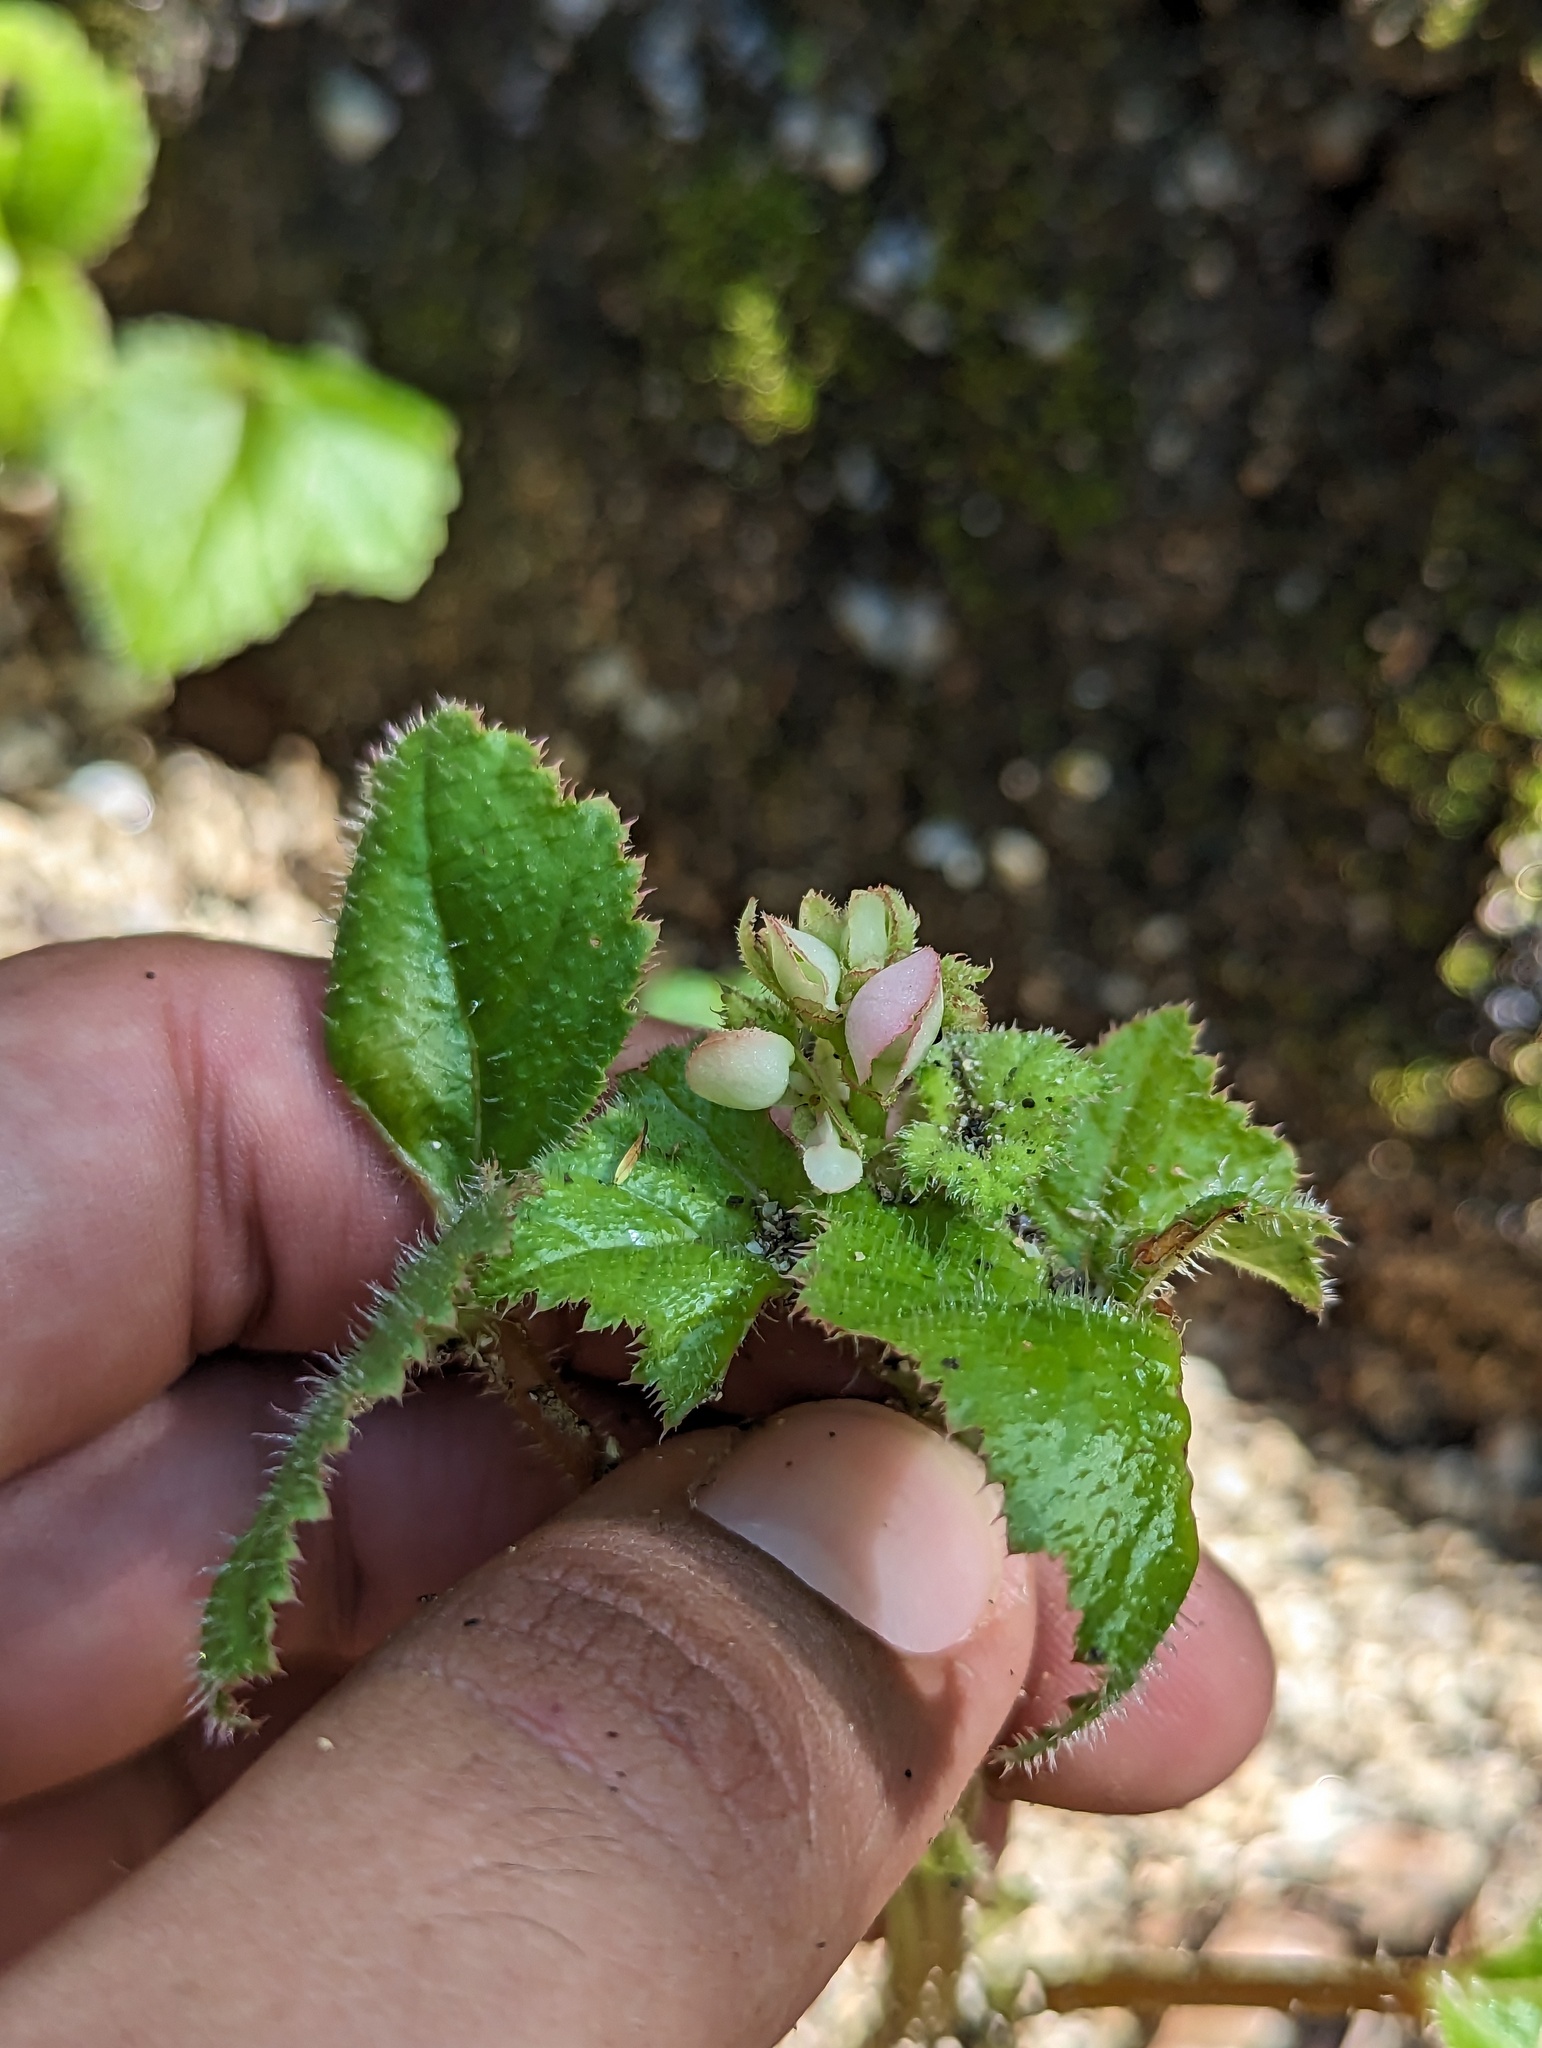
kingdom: Plantae
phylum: Tracheophyta
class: Magnoliopsida
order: Cucurbitales
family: Begoniaceae
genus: Begonia
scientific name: Begonia palmeri
